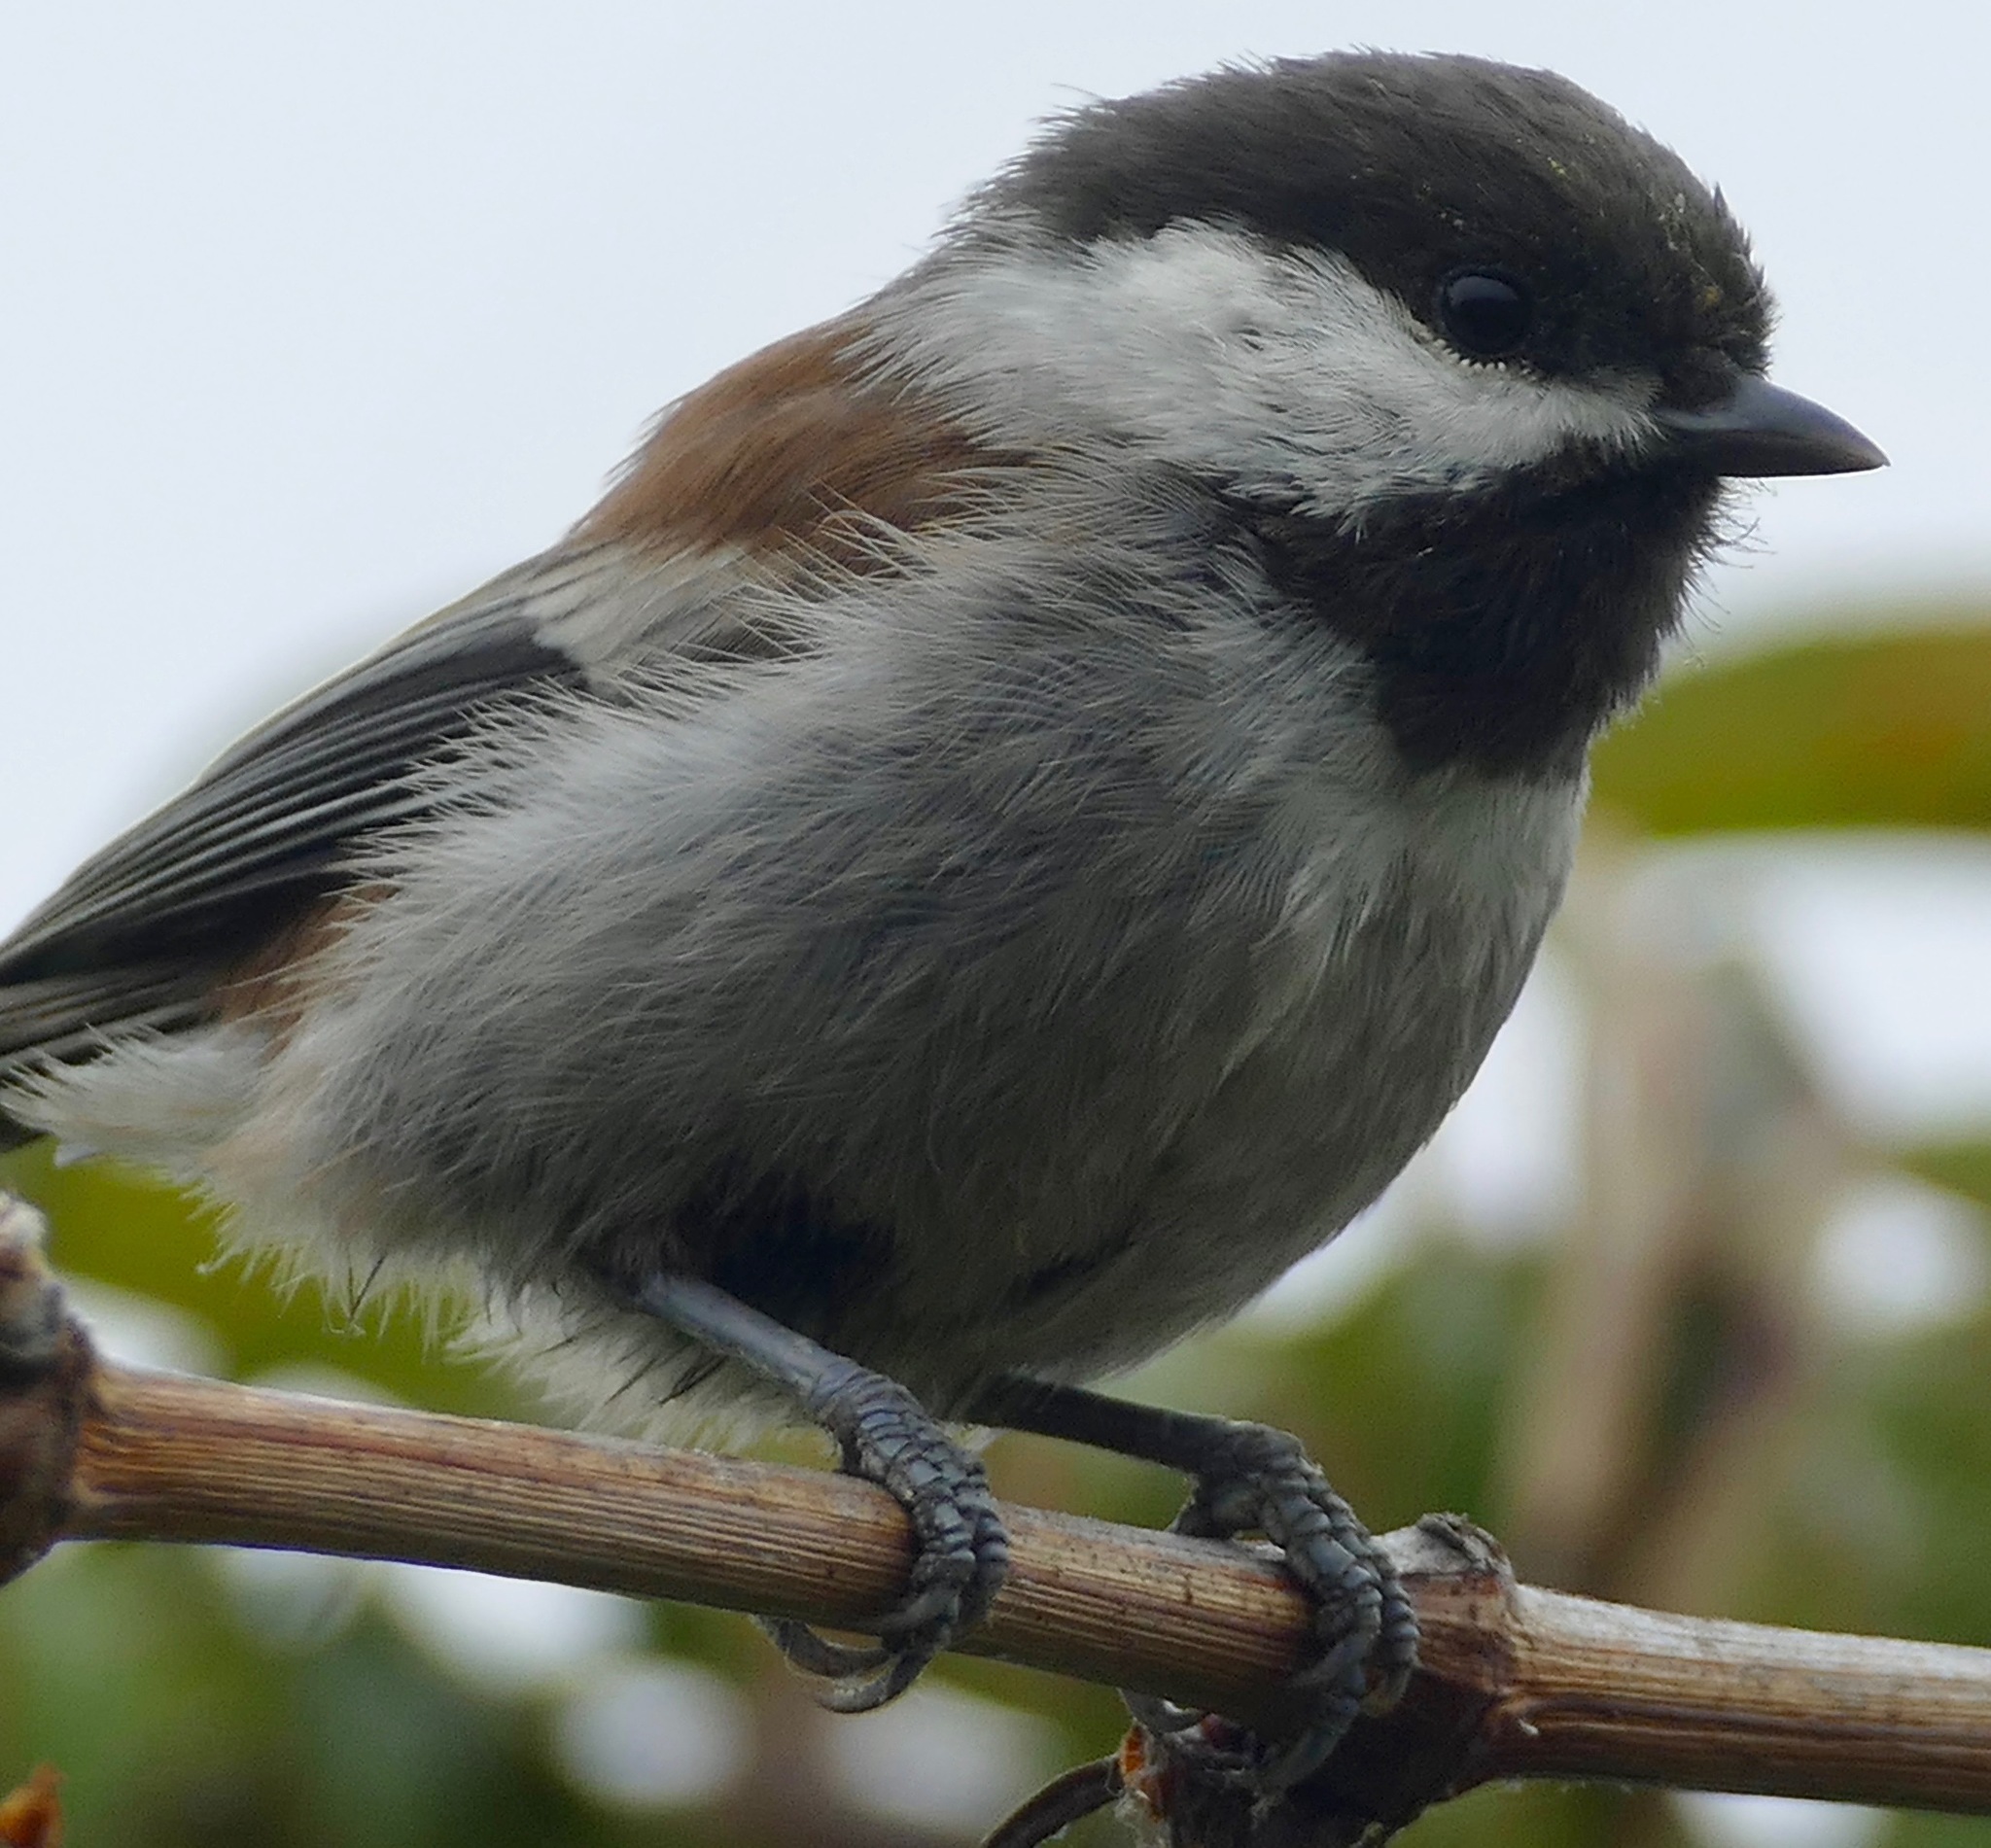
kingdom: Animalia
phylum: Chordata
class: Aves
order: Passeriformes
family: Paridae
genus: Poecile
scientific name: Poecile rufescens
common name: Chestnut-backed chickadee
